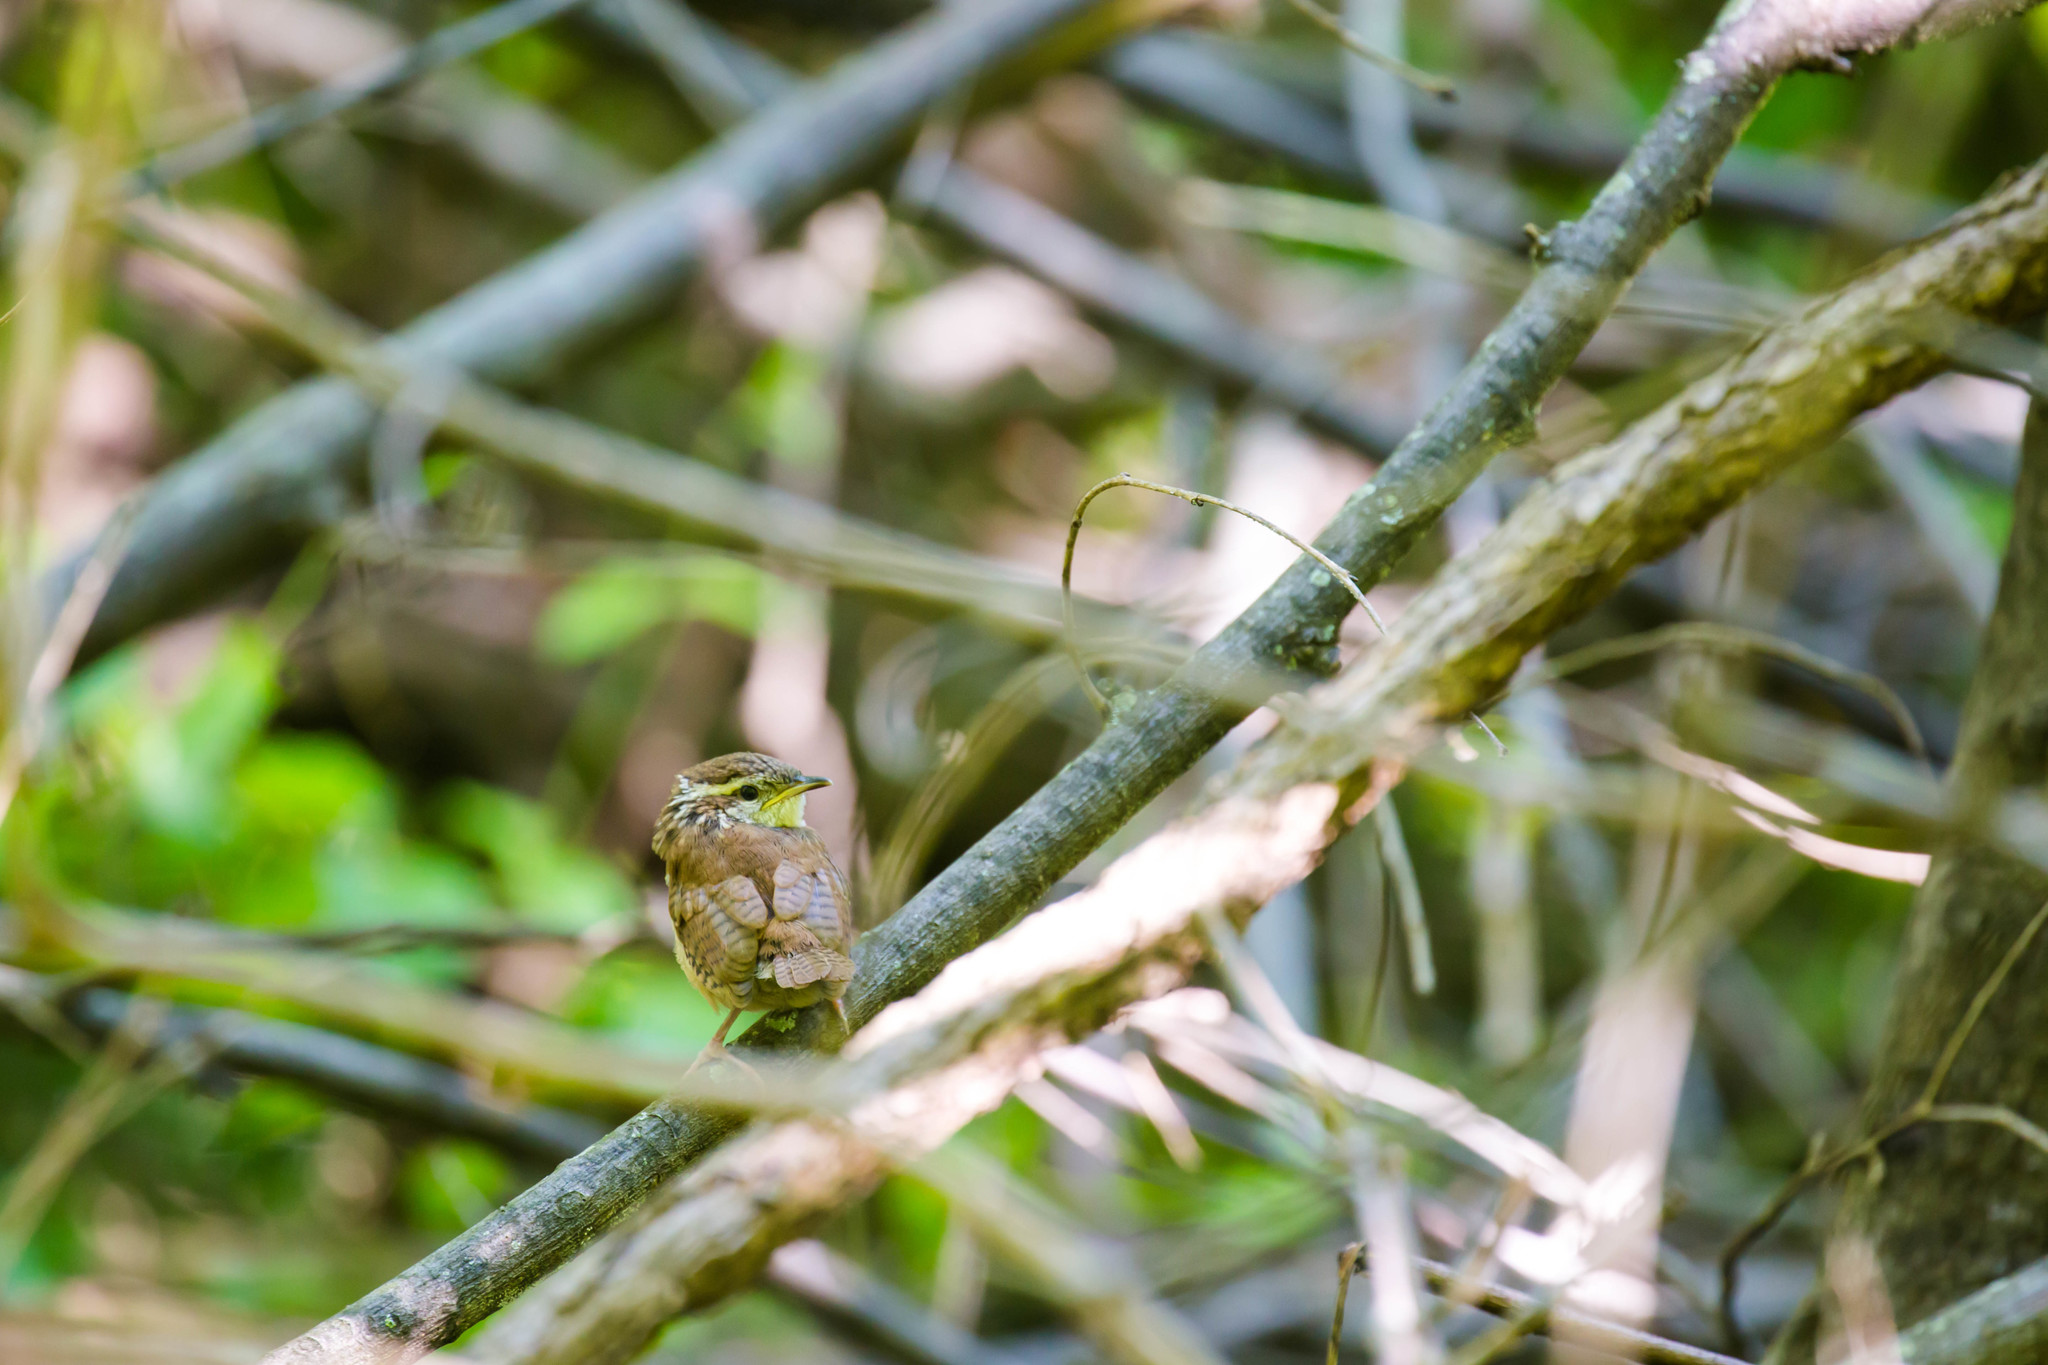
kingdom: Animalia
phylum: Chordata
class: Aves
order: Passeriformes
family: Troglodytidae
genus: Thryothorus
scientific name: Thryothorus ludovicianus
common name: Carolina wren
